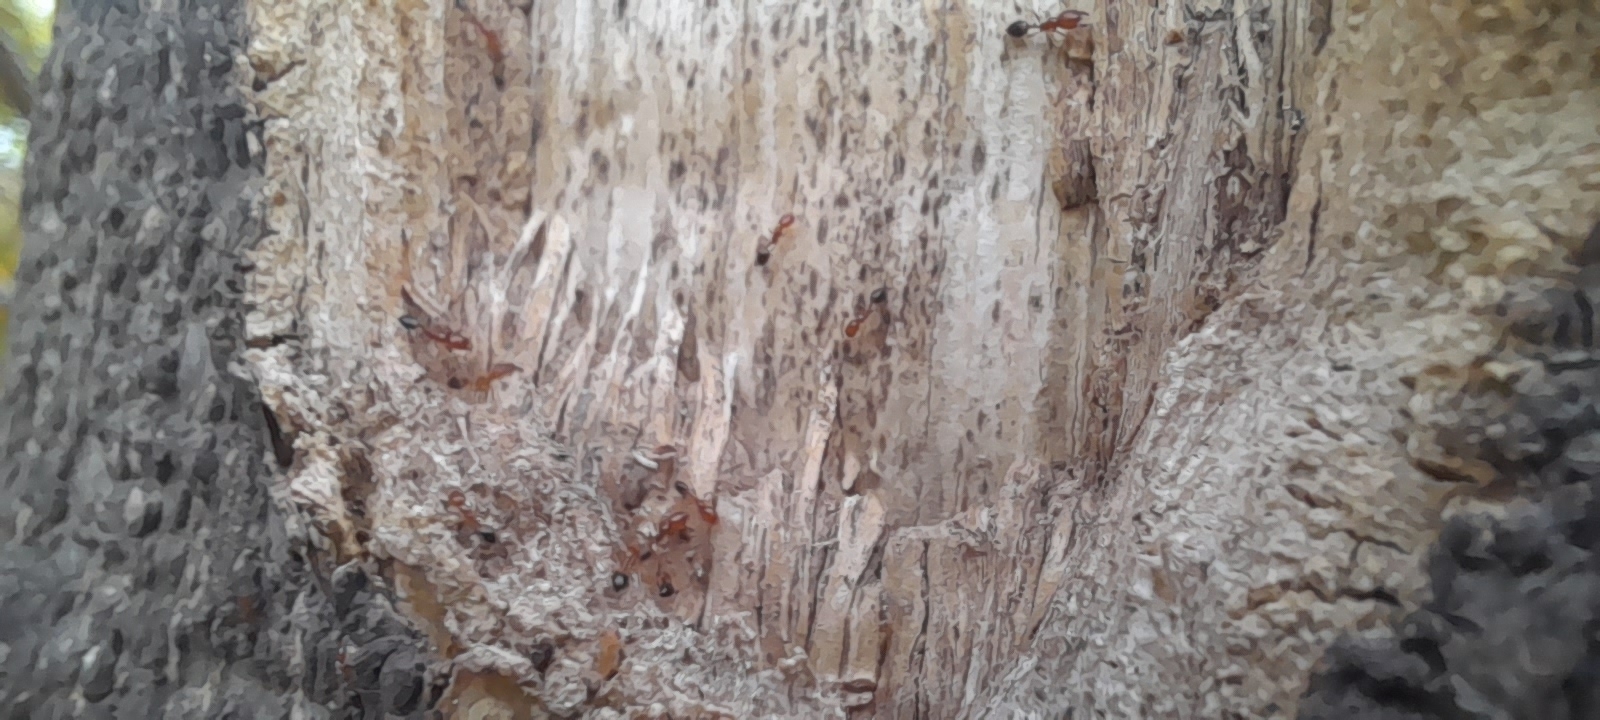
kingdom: Animalia
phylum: Arthropoda
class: Insecta
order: Hymenoptera
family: Formicidae
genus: Monomorium
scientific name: Monomorium destructor
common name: Destructive trailing ant
